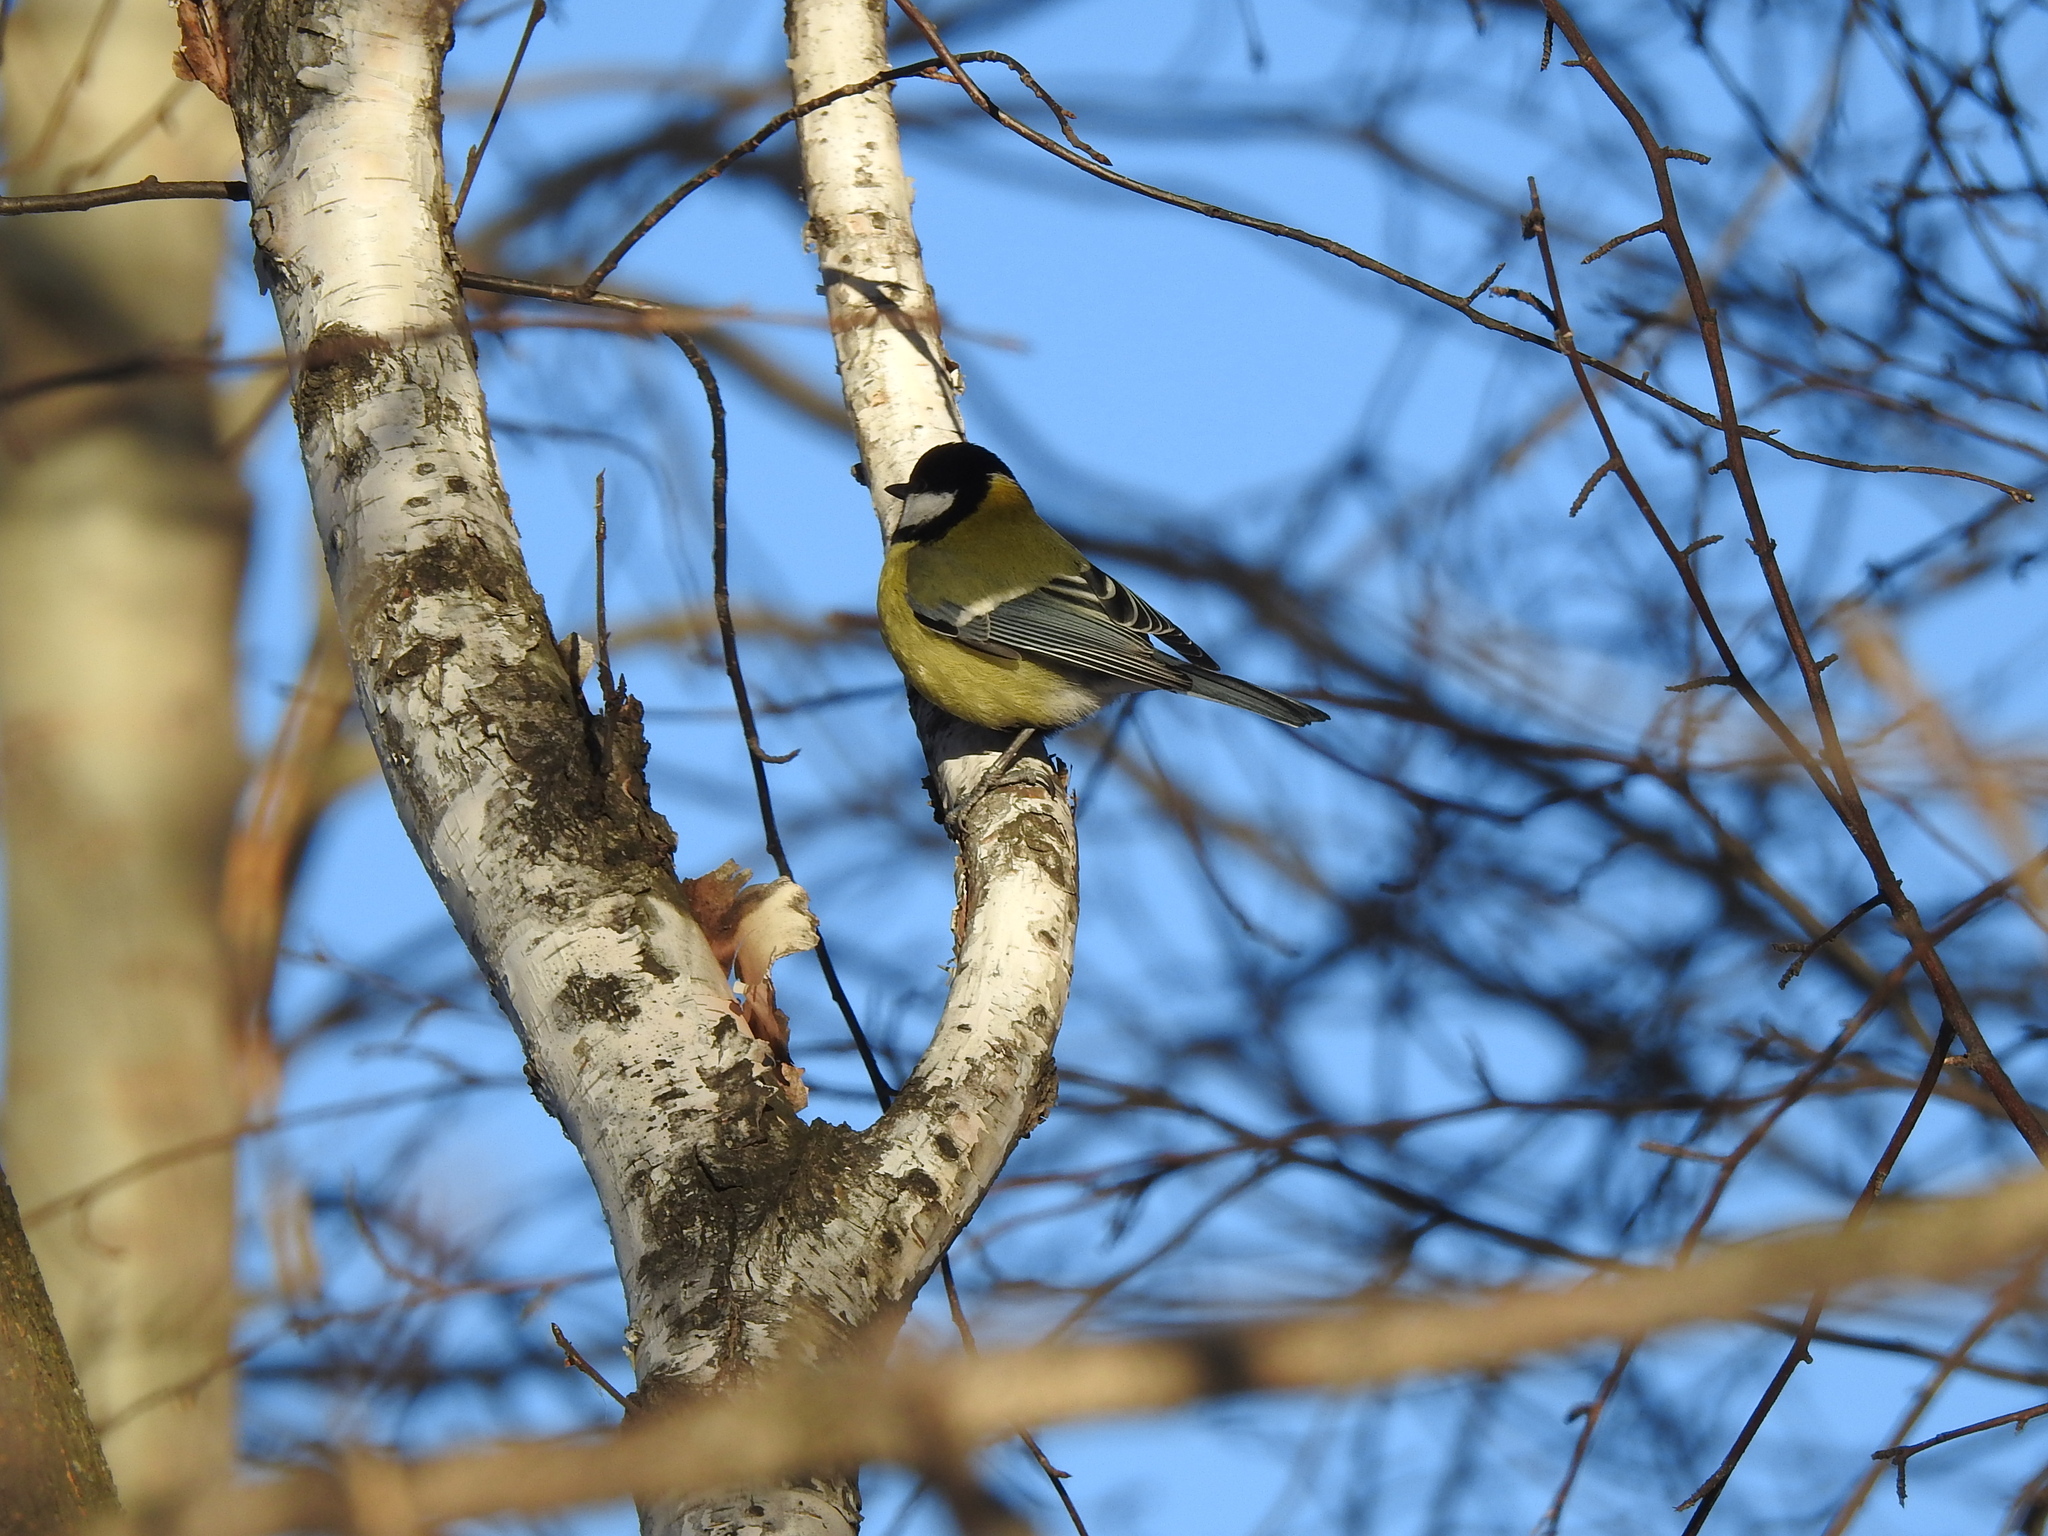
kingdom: Animalia
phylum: Chordata
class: Aves
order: Passeriformes
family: Paridae
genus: Parus
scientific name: Parus major
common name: Great tit
